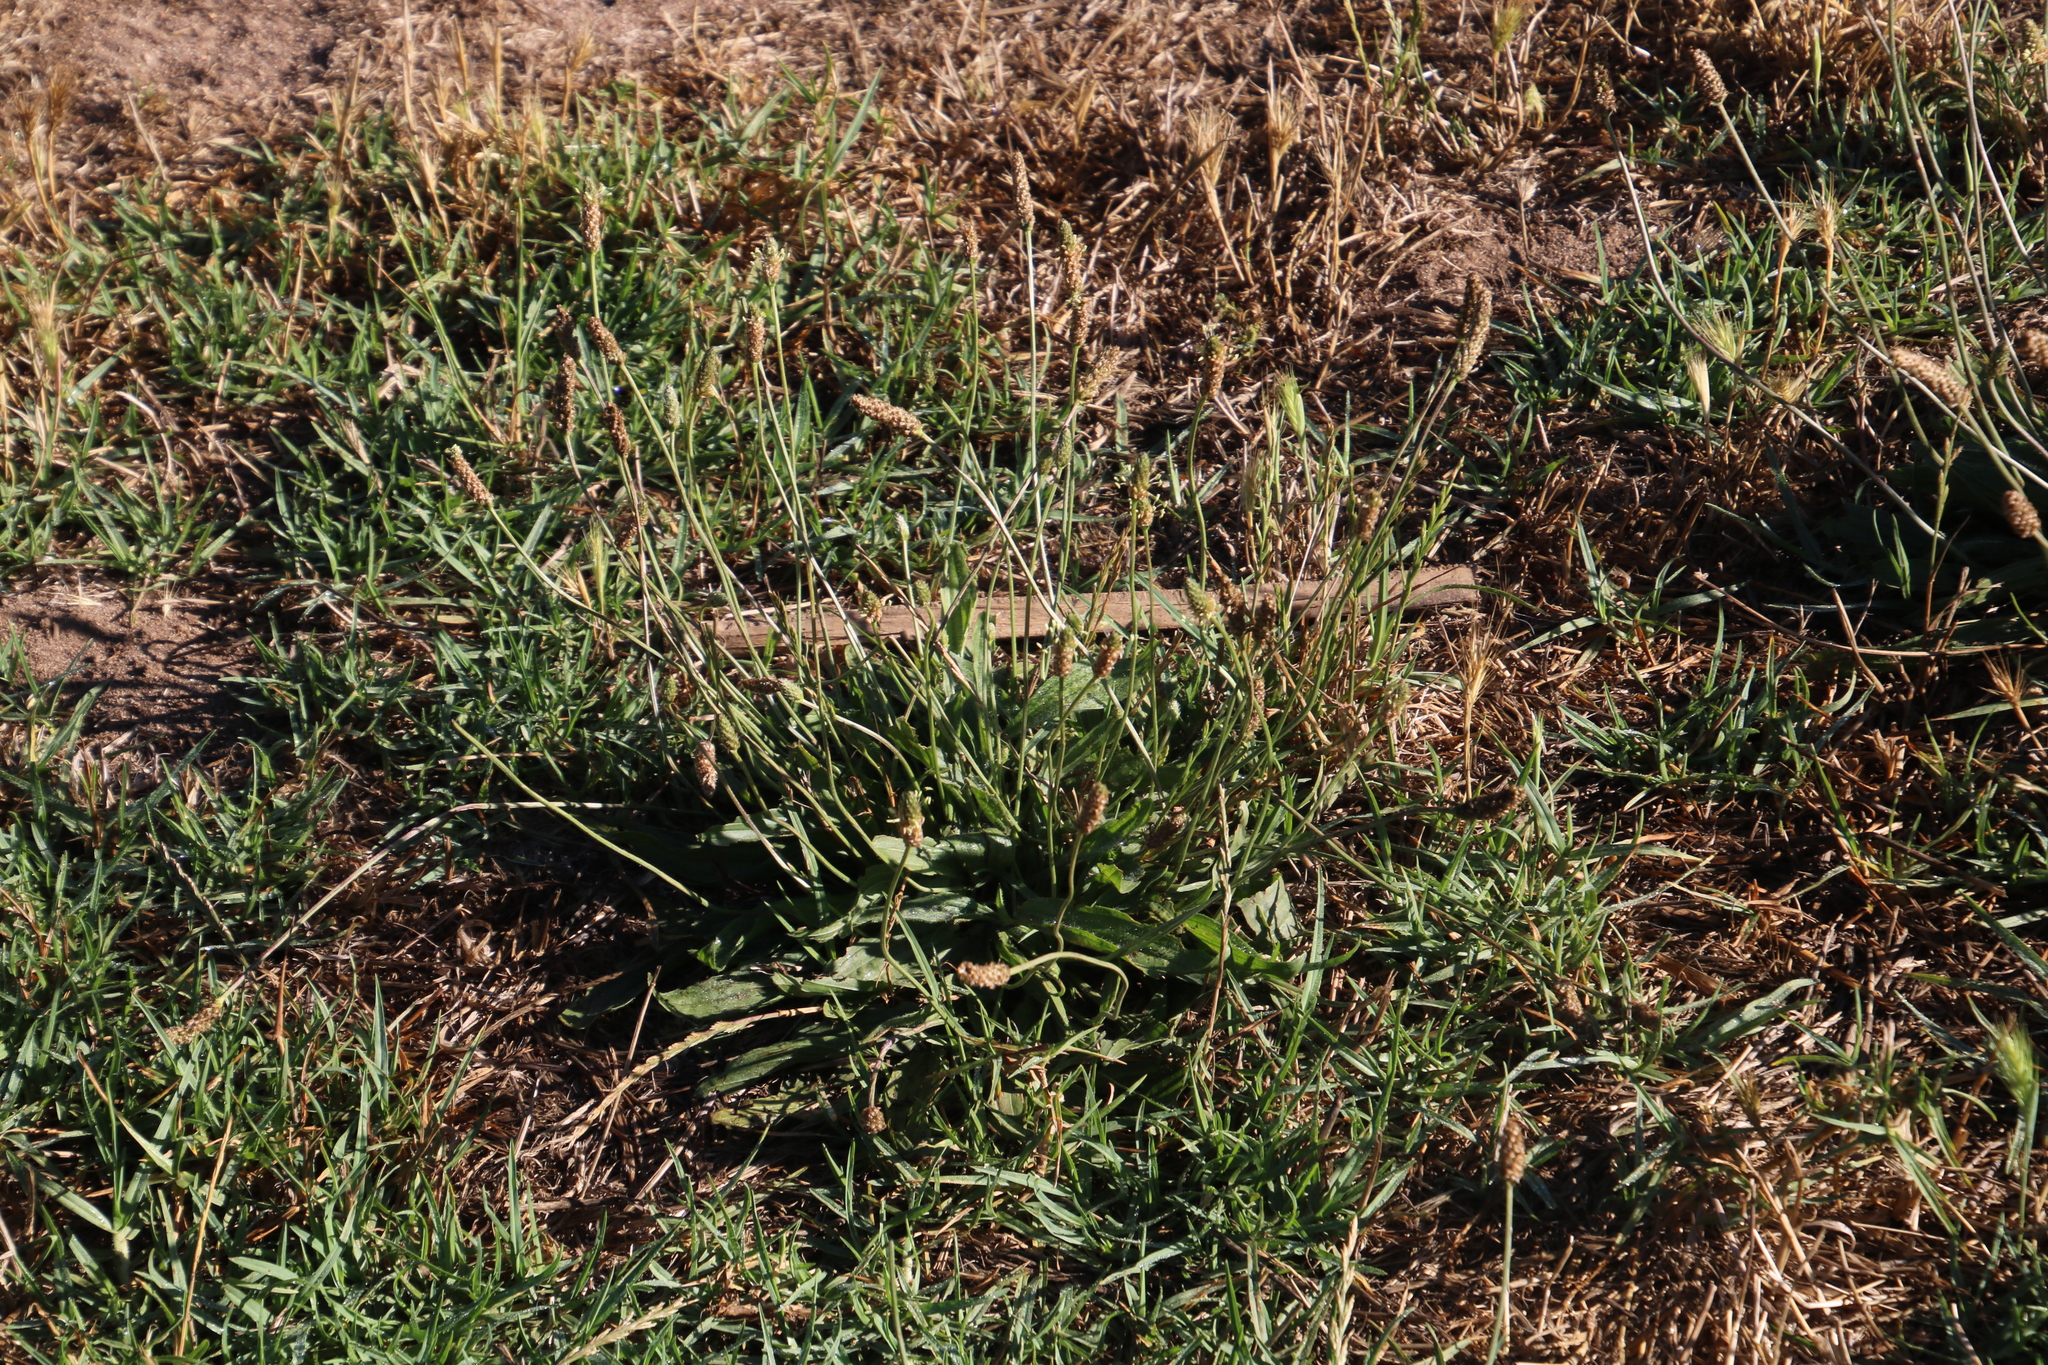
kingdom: Plantae
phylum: Tracheophyta
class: Magnoliopsida
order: Lamiales
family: Plantaginaceae
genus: Plantago
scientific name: Plantago lanceolata
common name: Ribwort plantain
